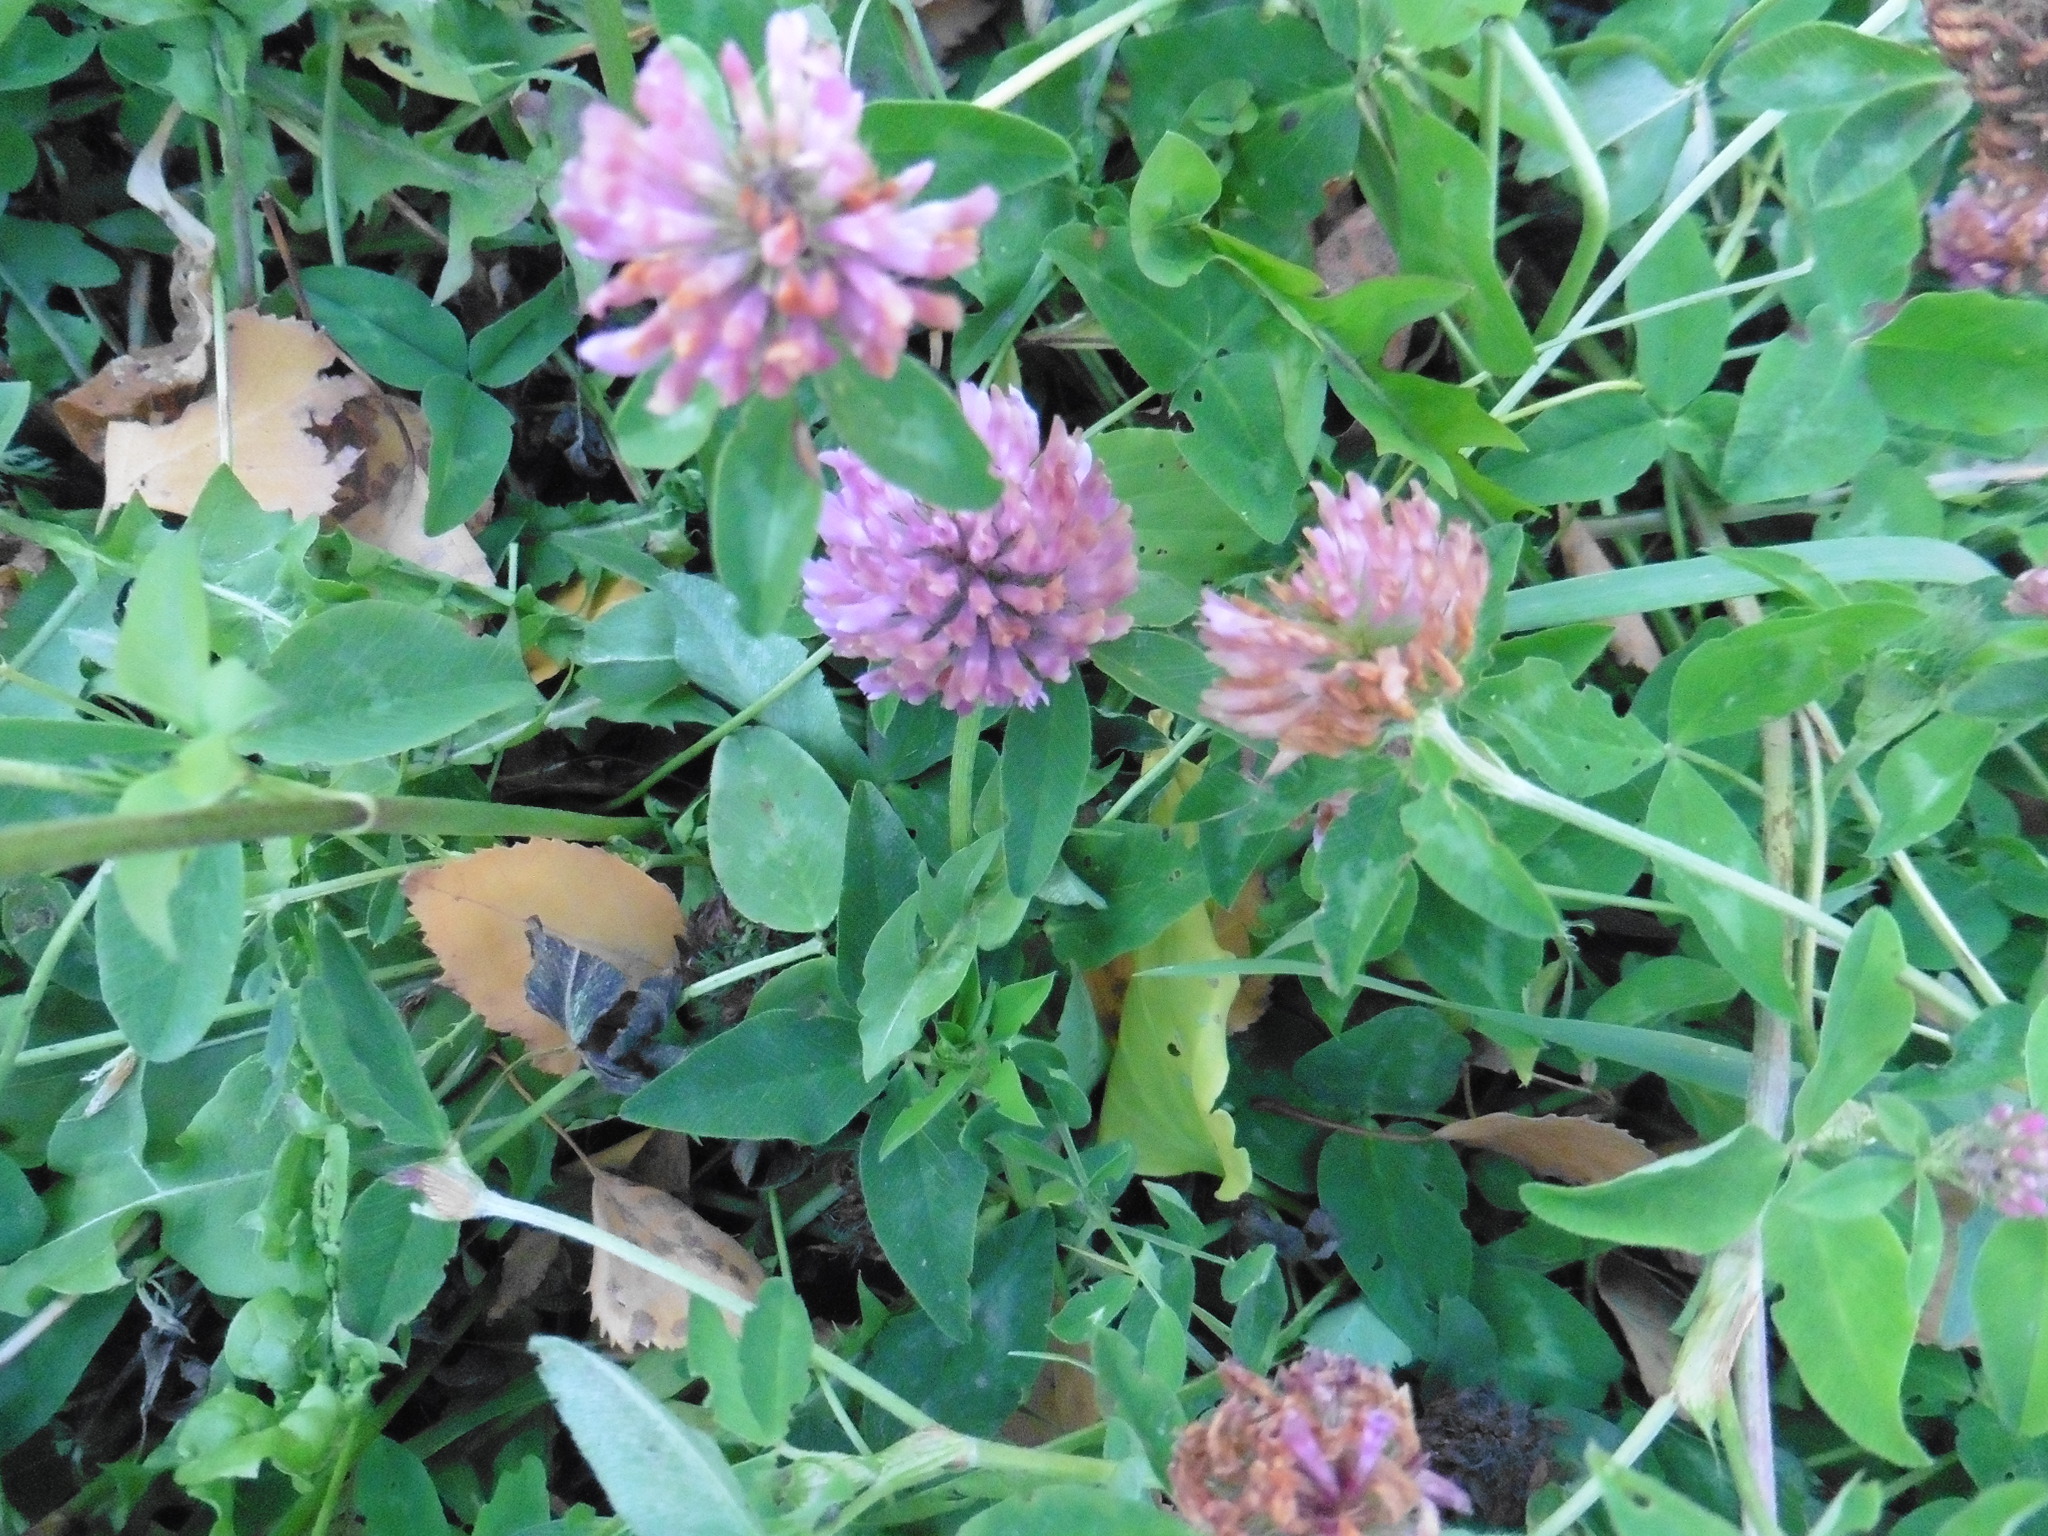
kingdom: Plantae
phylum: Tracheophyta
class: Magnoliopsida
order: Fabales
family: Fabaceae
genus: Trifolium
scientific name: Trifolium pratense
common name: Red clover
